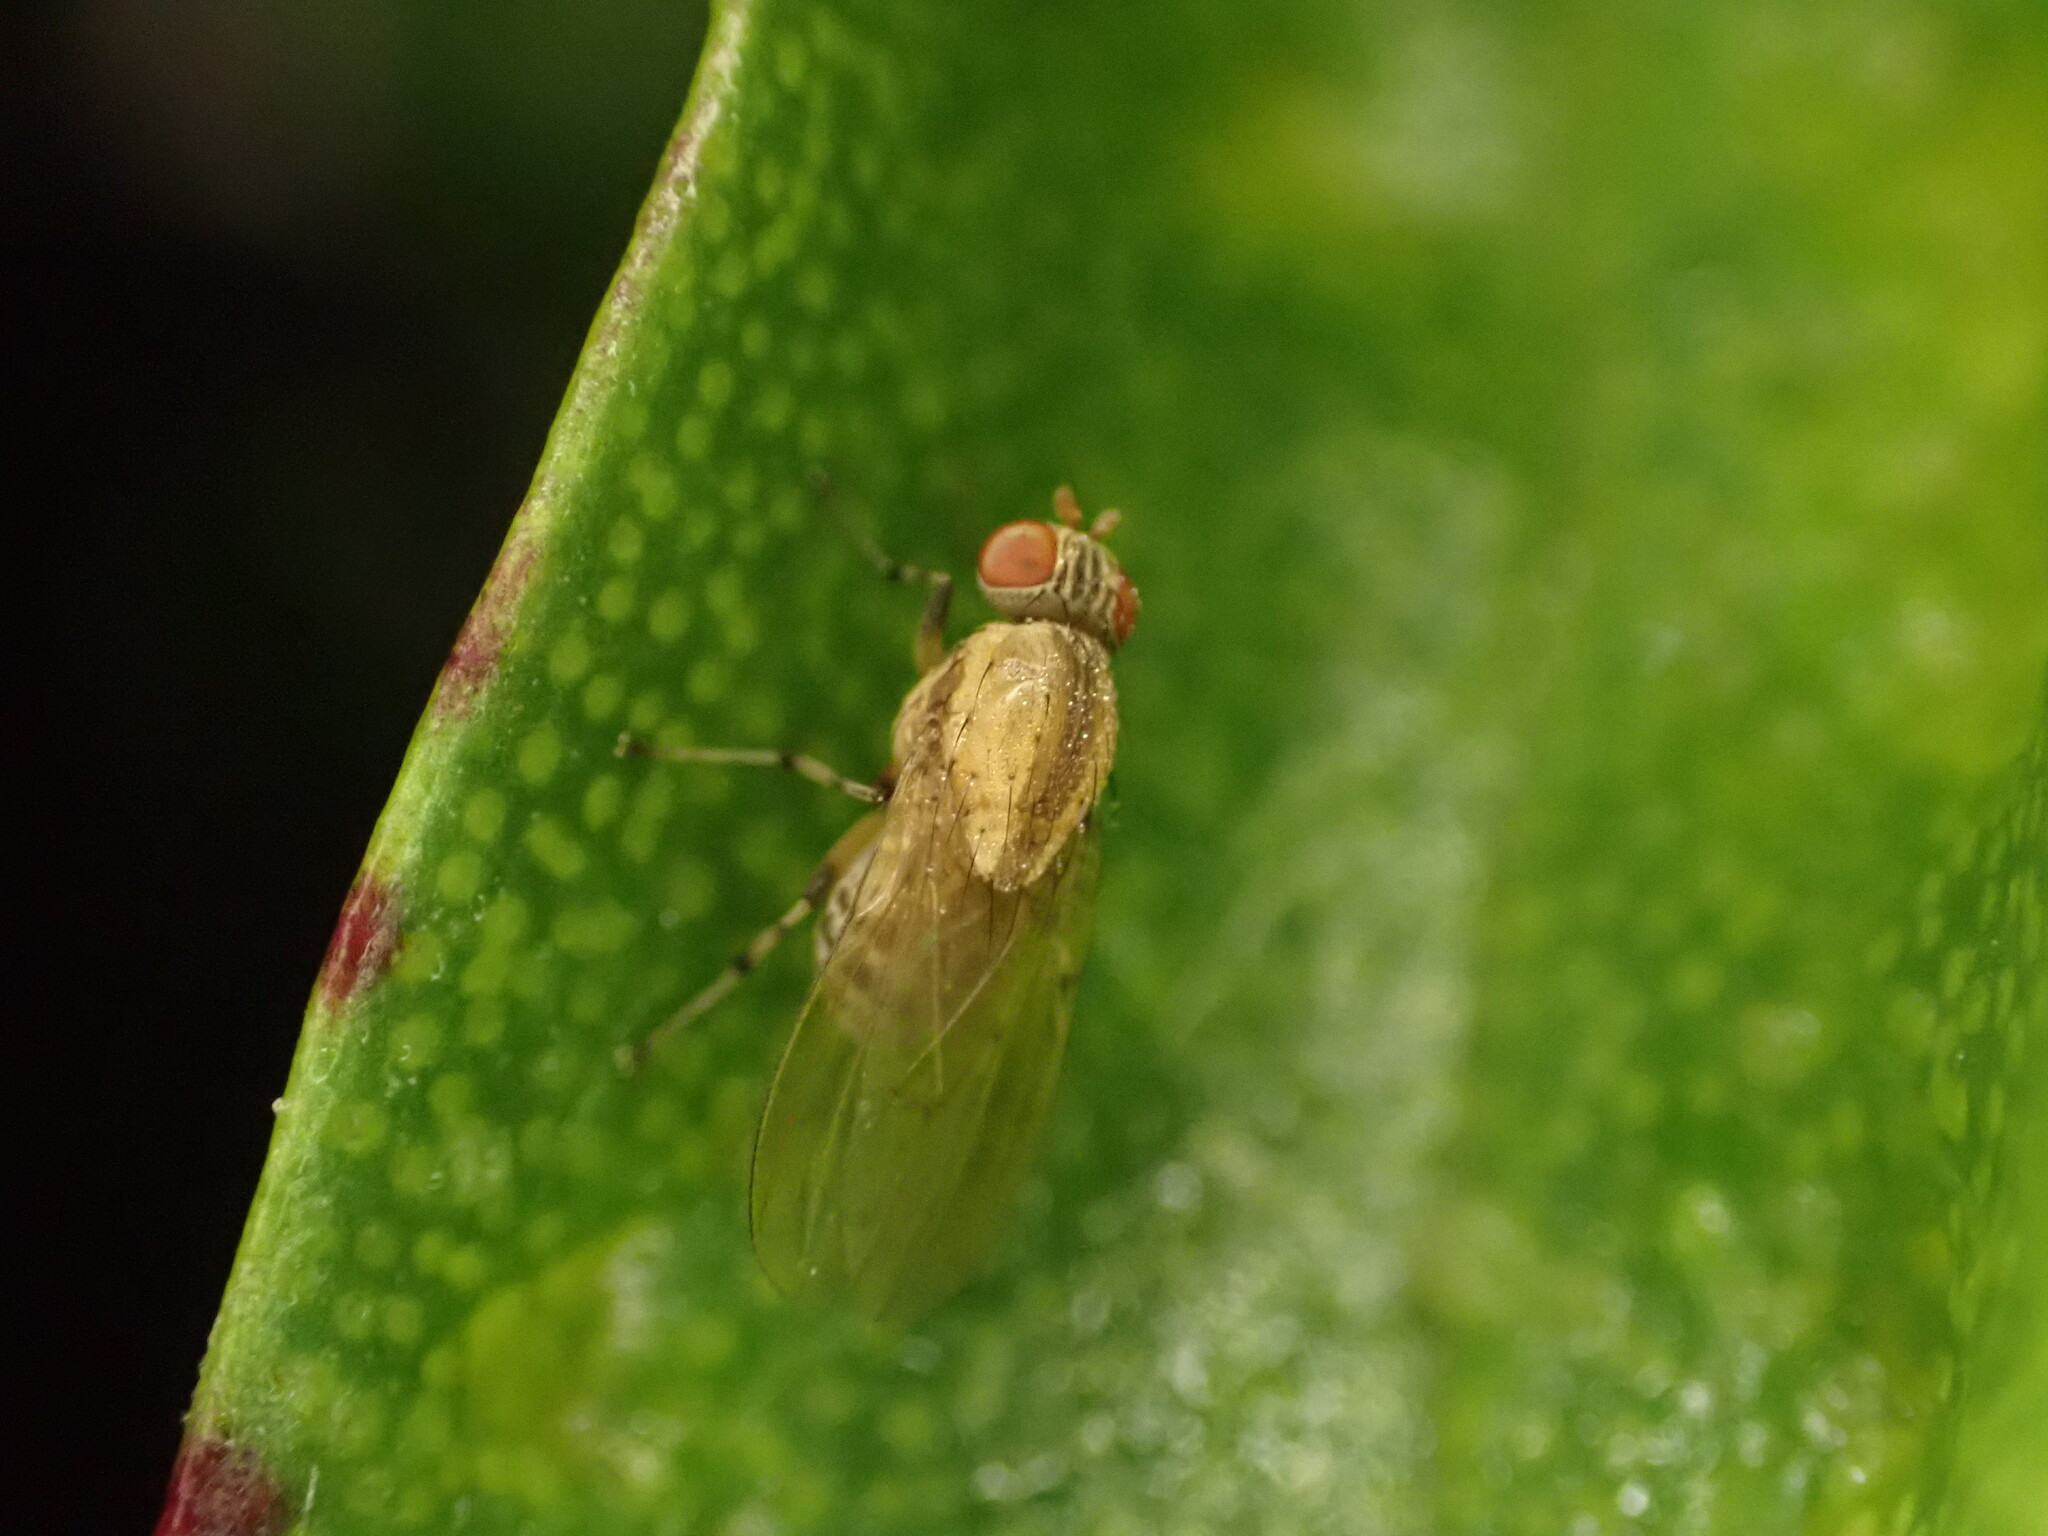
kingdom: Animalia
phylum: Arthropoda
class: Insecta
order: Diptera
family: Lauxaniidae
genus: Sapromyza
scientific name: Sapromyza neozelandica
